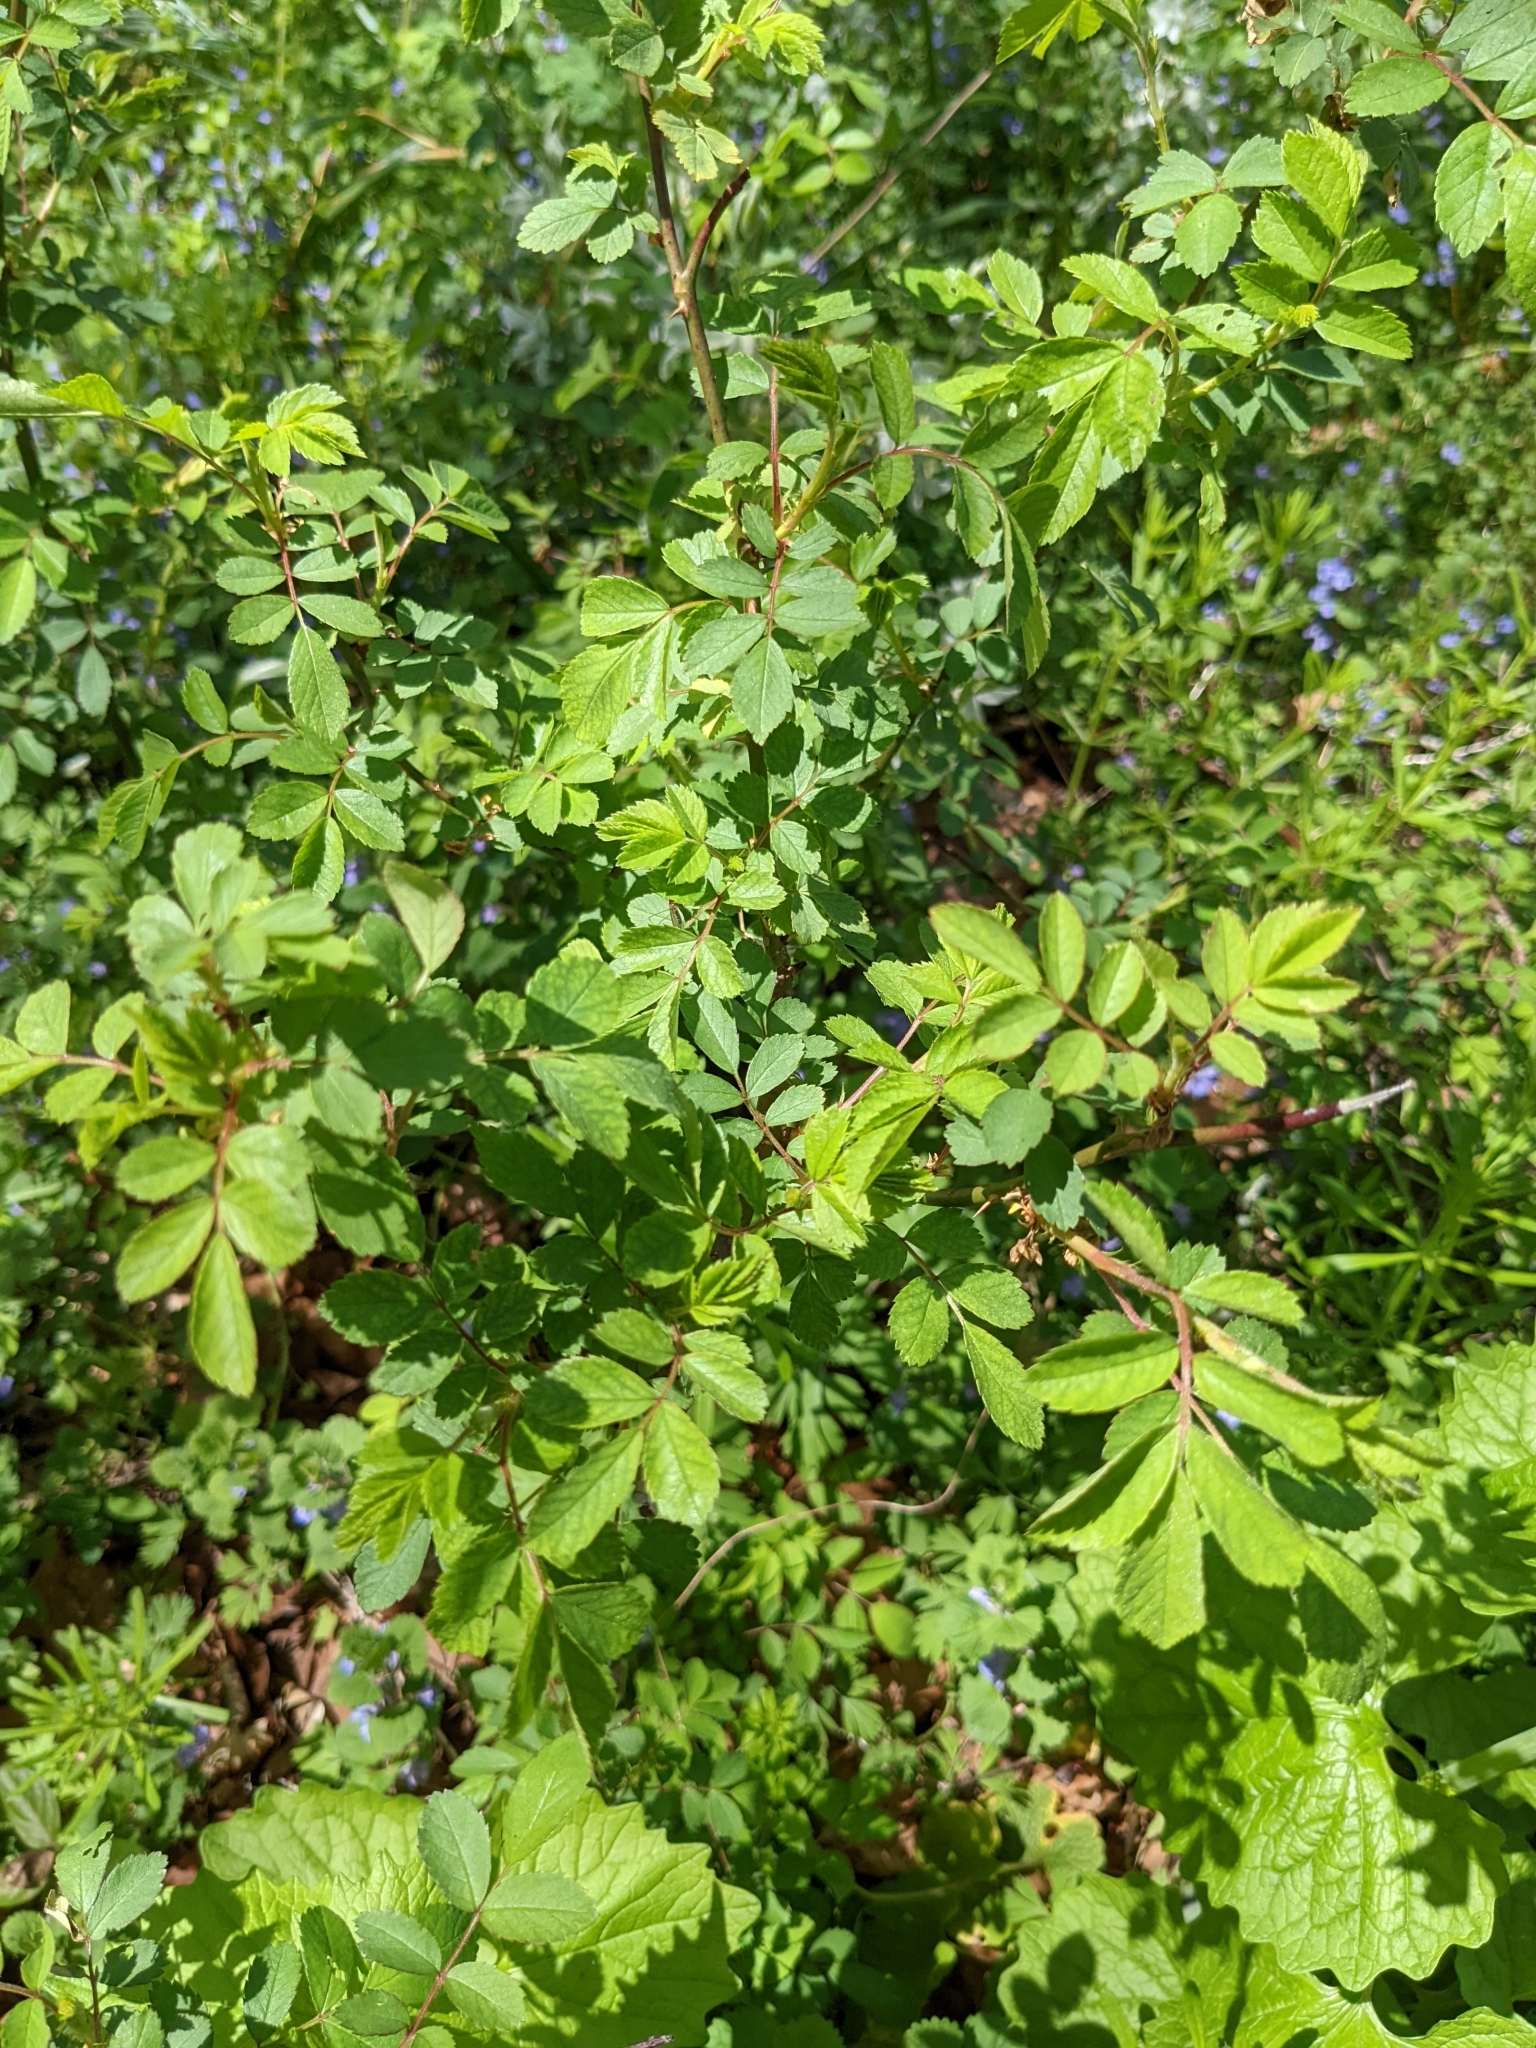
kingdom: Plantae
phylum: Tracheophyta
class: Magnoliopsida
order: Rosales
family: Rosaceae
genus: Rosa
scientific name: Rosa multiflora
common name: Multiflora rose
